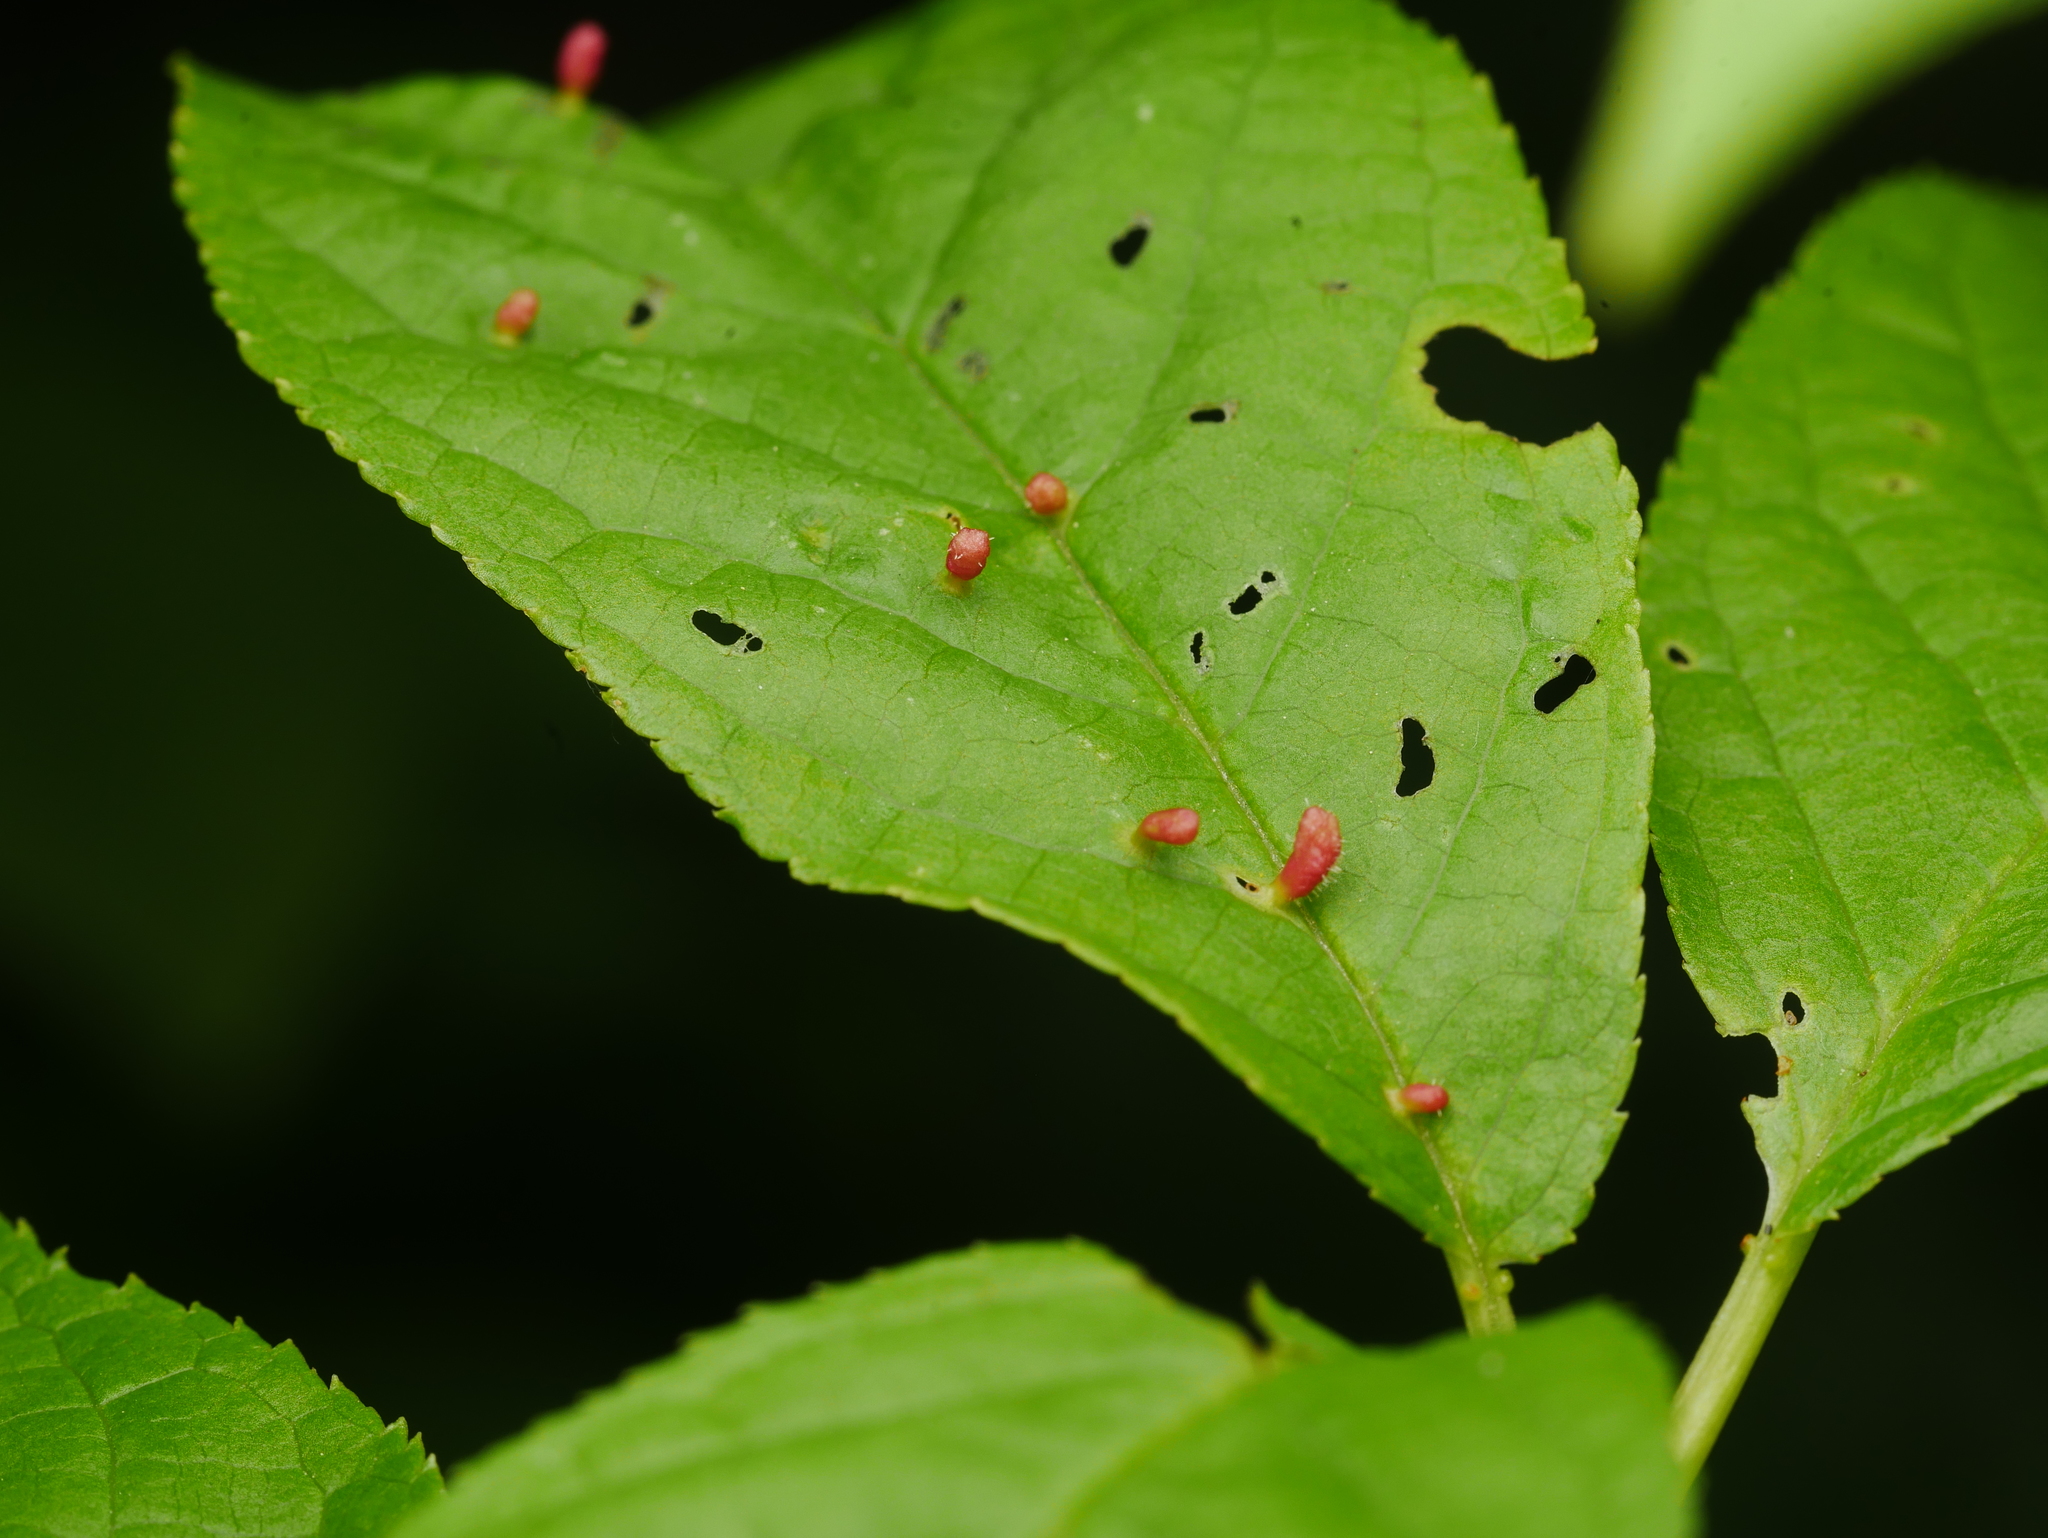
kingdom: Animalia
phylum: Arthropoda
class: Arachnida
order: Trombidiformes
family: Eriophyidae
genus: Phyllocoptes
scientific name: Phyllocoptes eupadi
